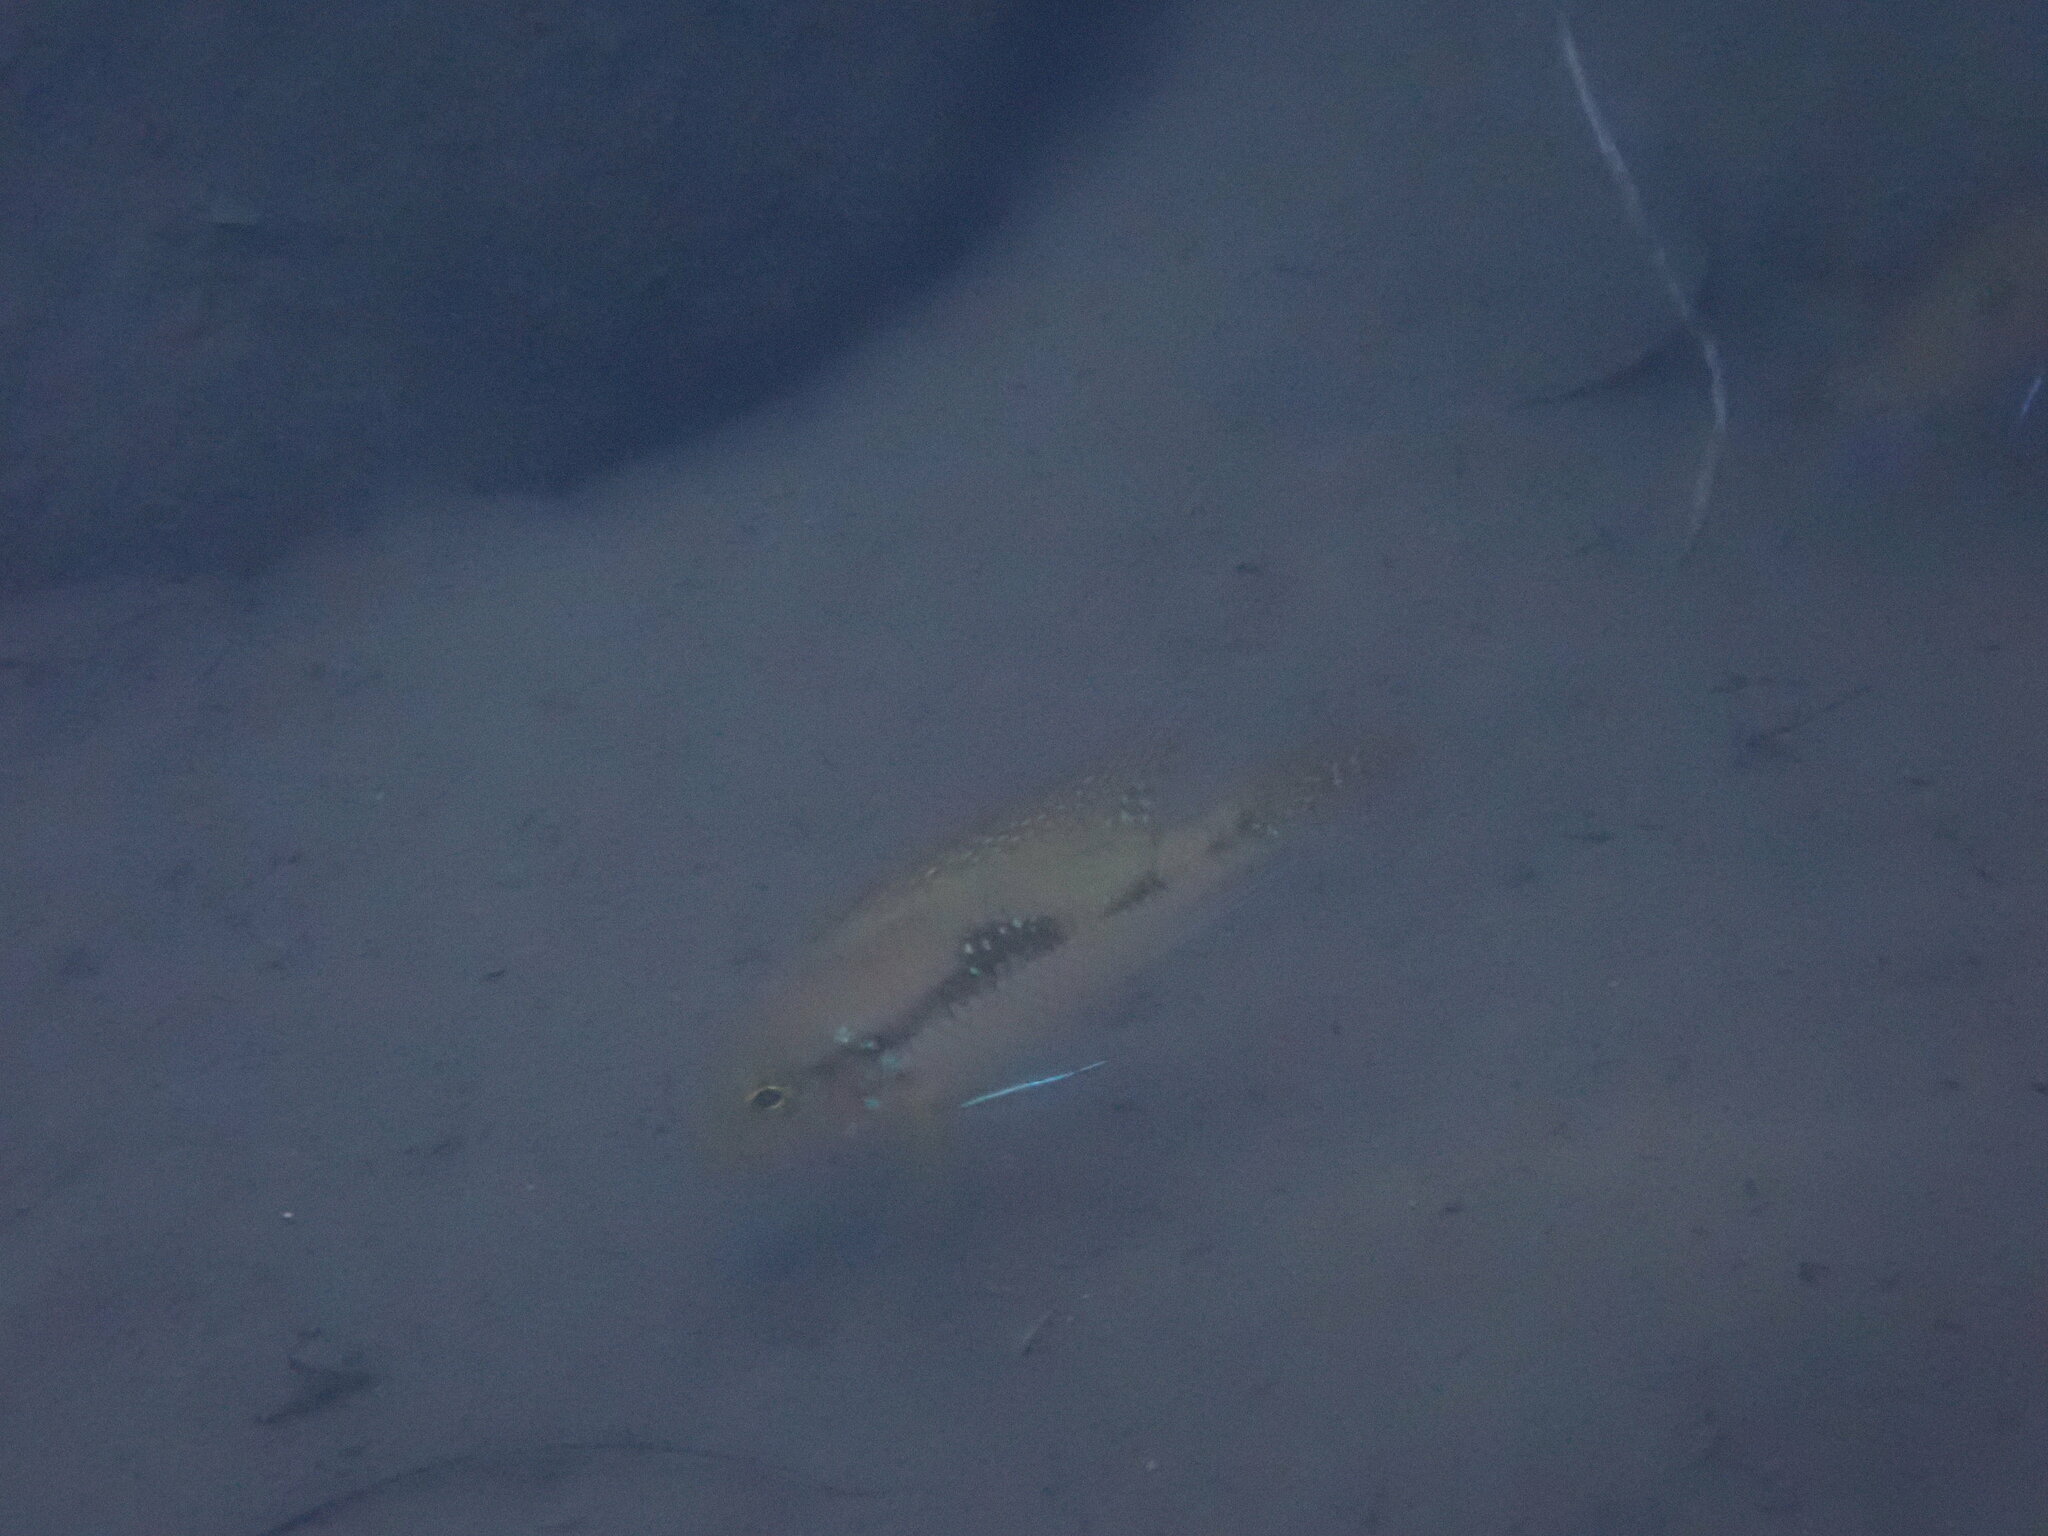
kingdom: Animalia
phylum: Chordata
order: Perciformes
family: Cichlidae
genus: Geophagus
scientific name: Geophagus brasiliensis
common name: Braziliensis
